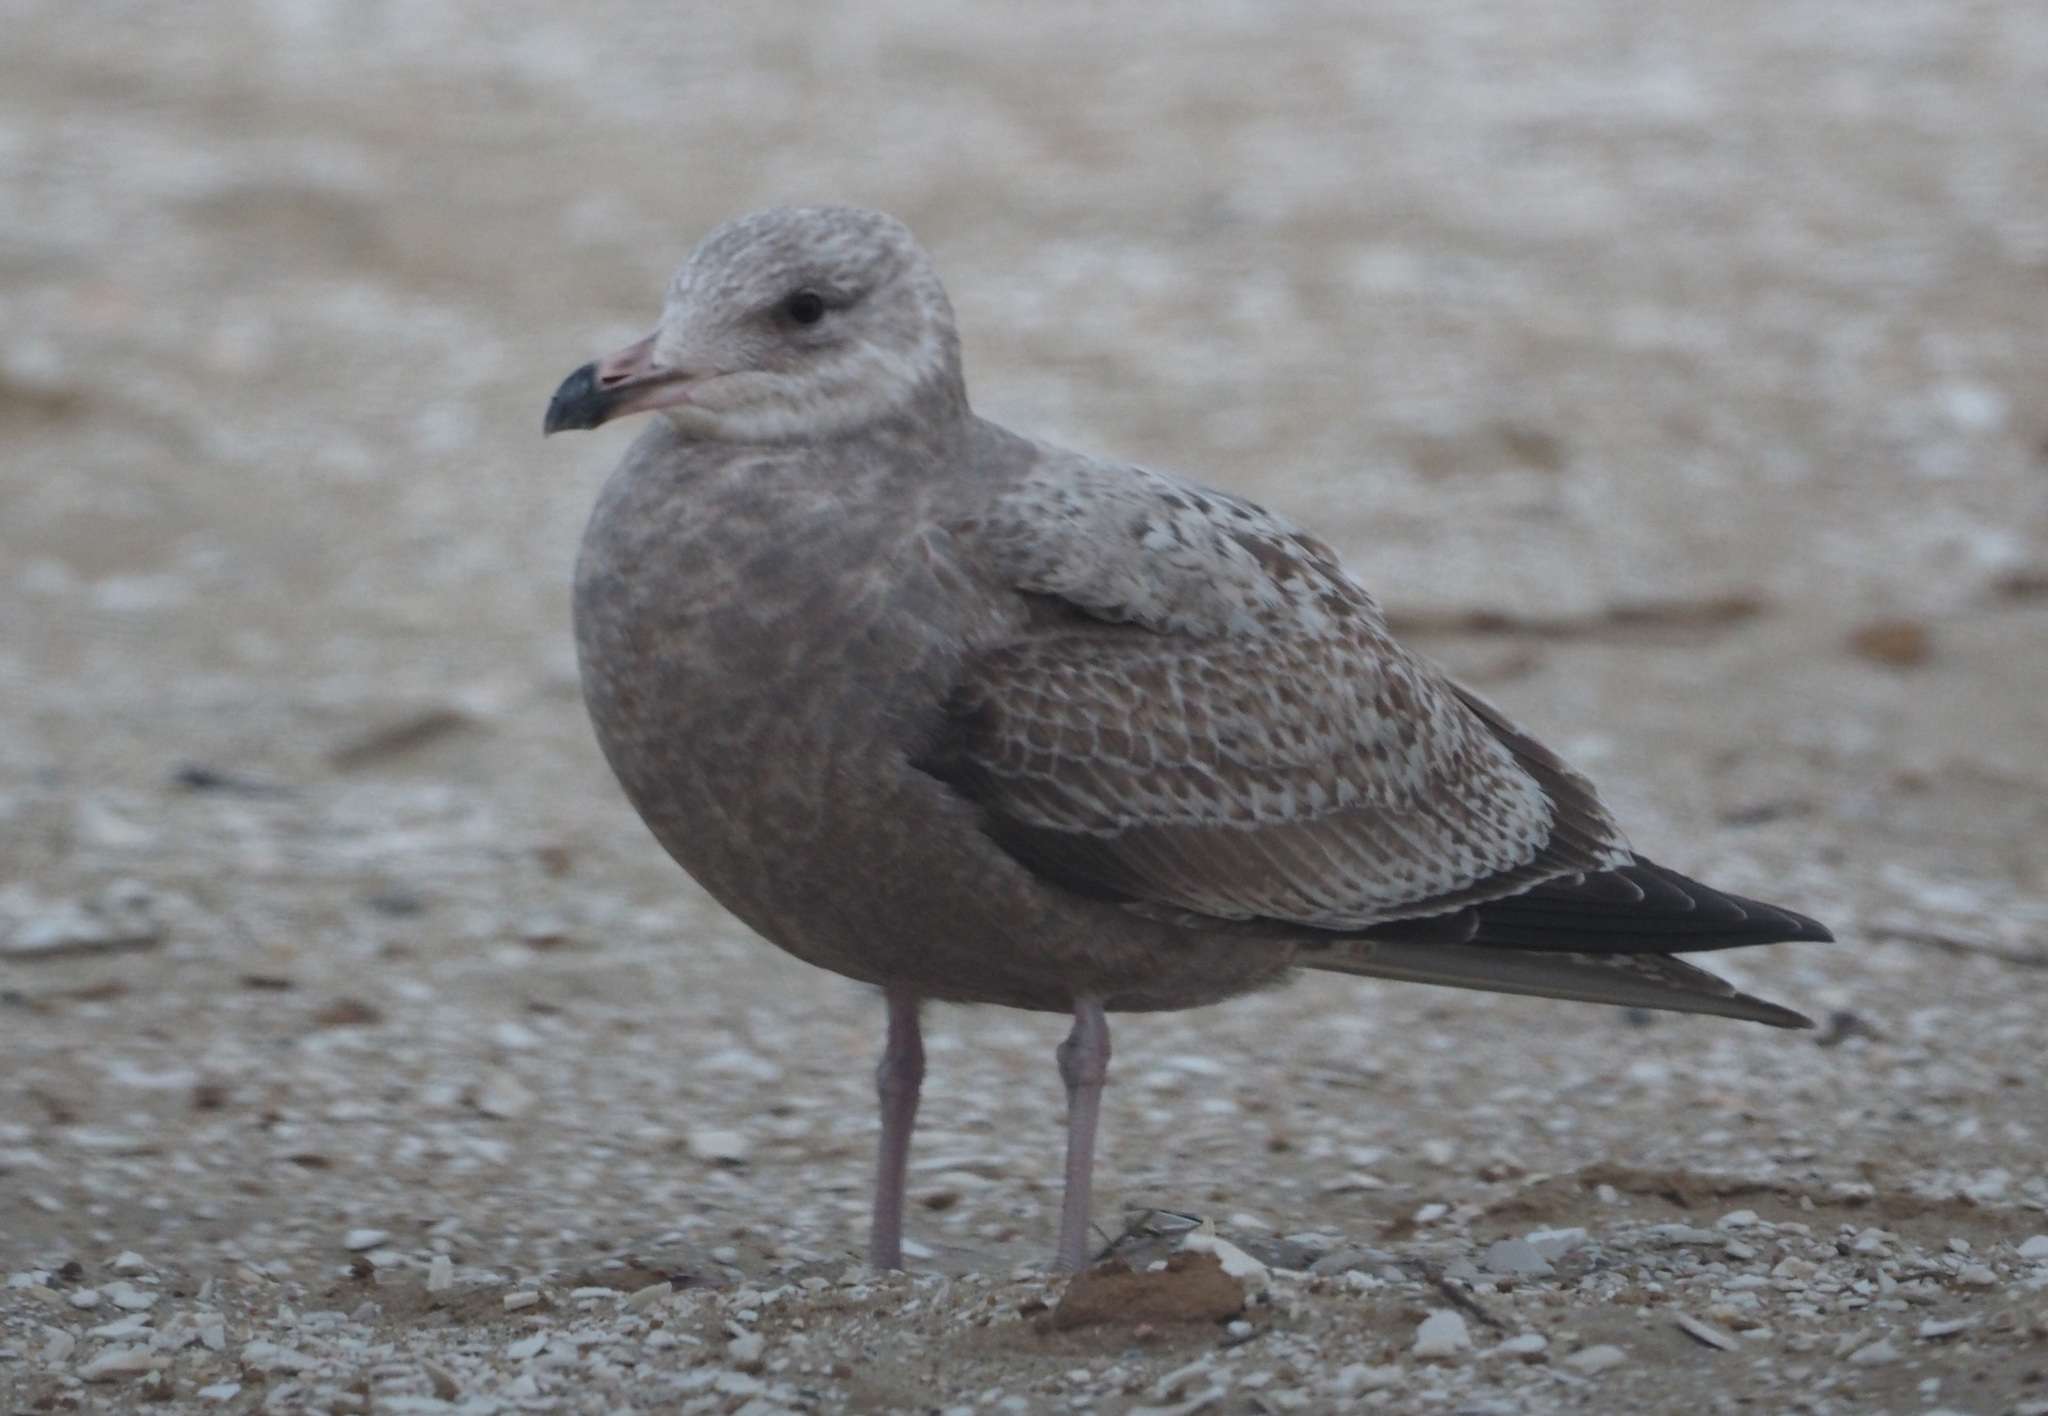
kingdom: Animalia
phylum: Chordata
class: Aves
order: Charadriiformes
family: Laridae
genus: Larus
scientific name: Larus argentatus
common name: Herring gull
